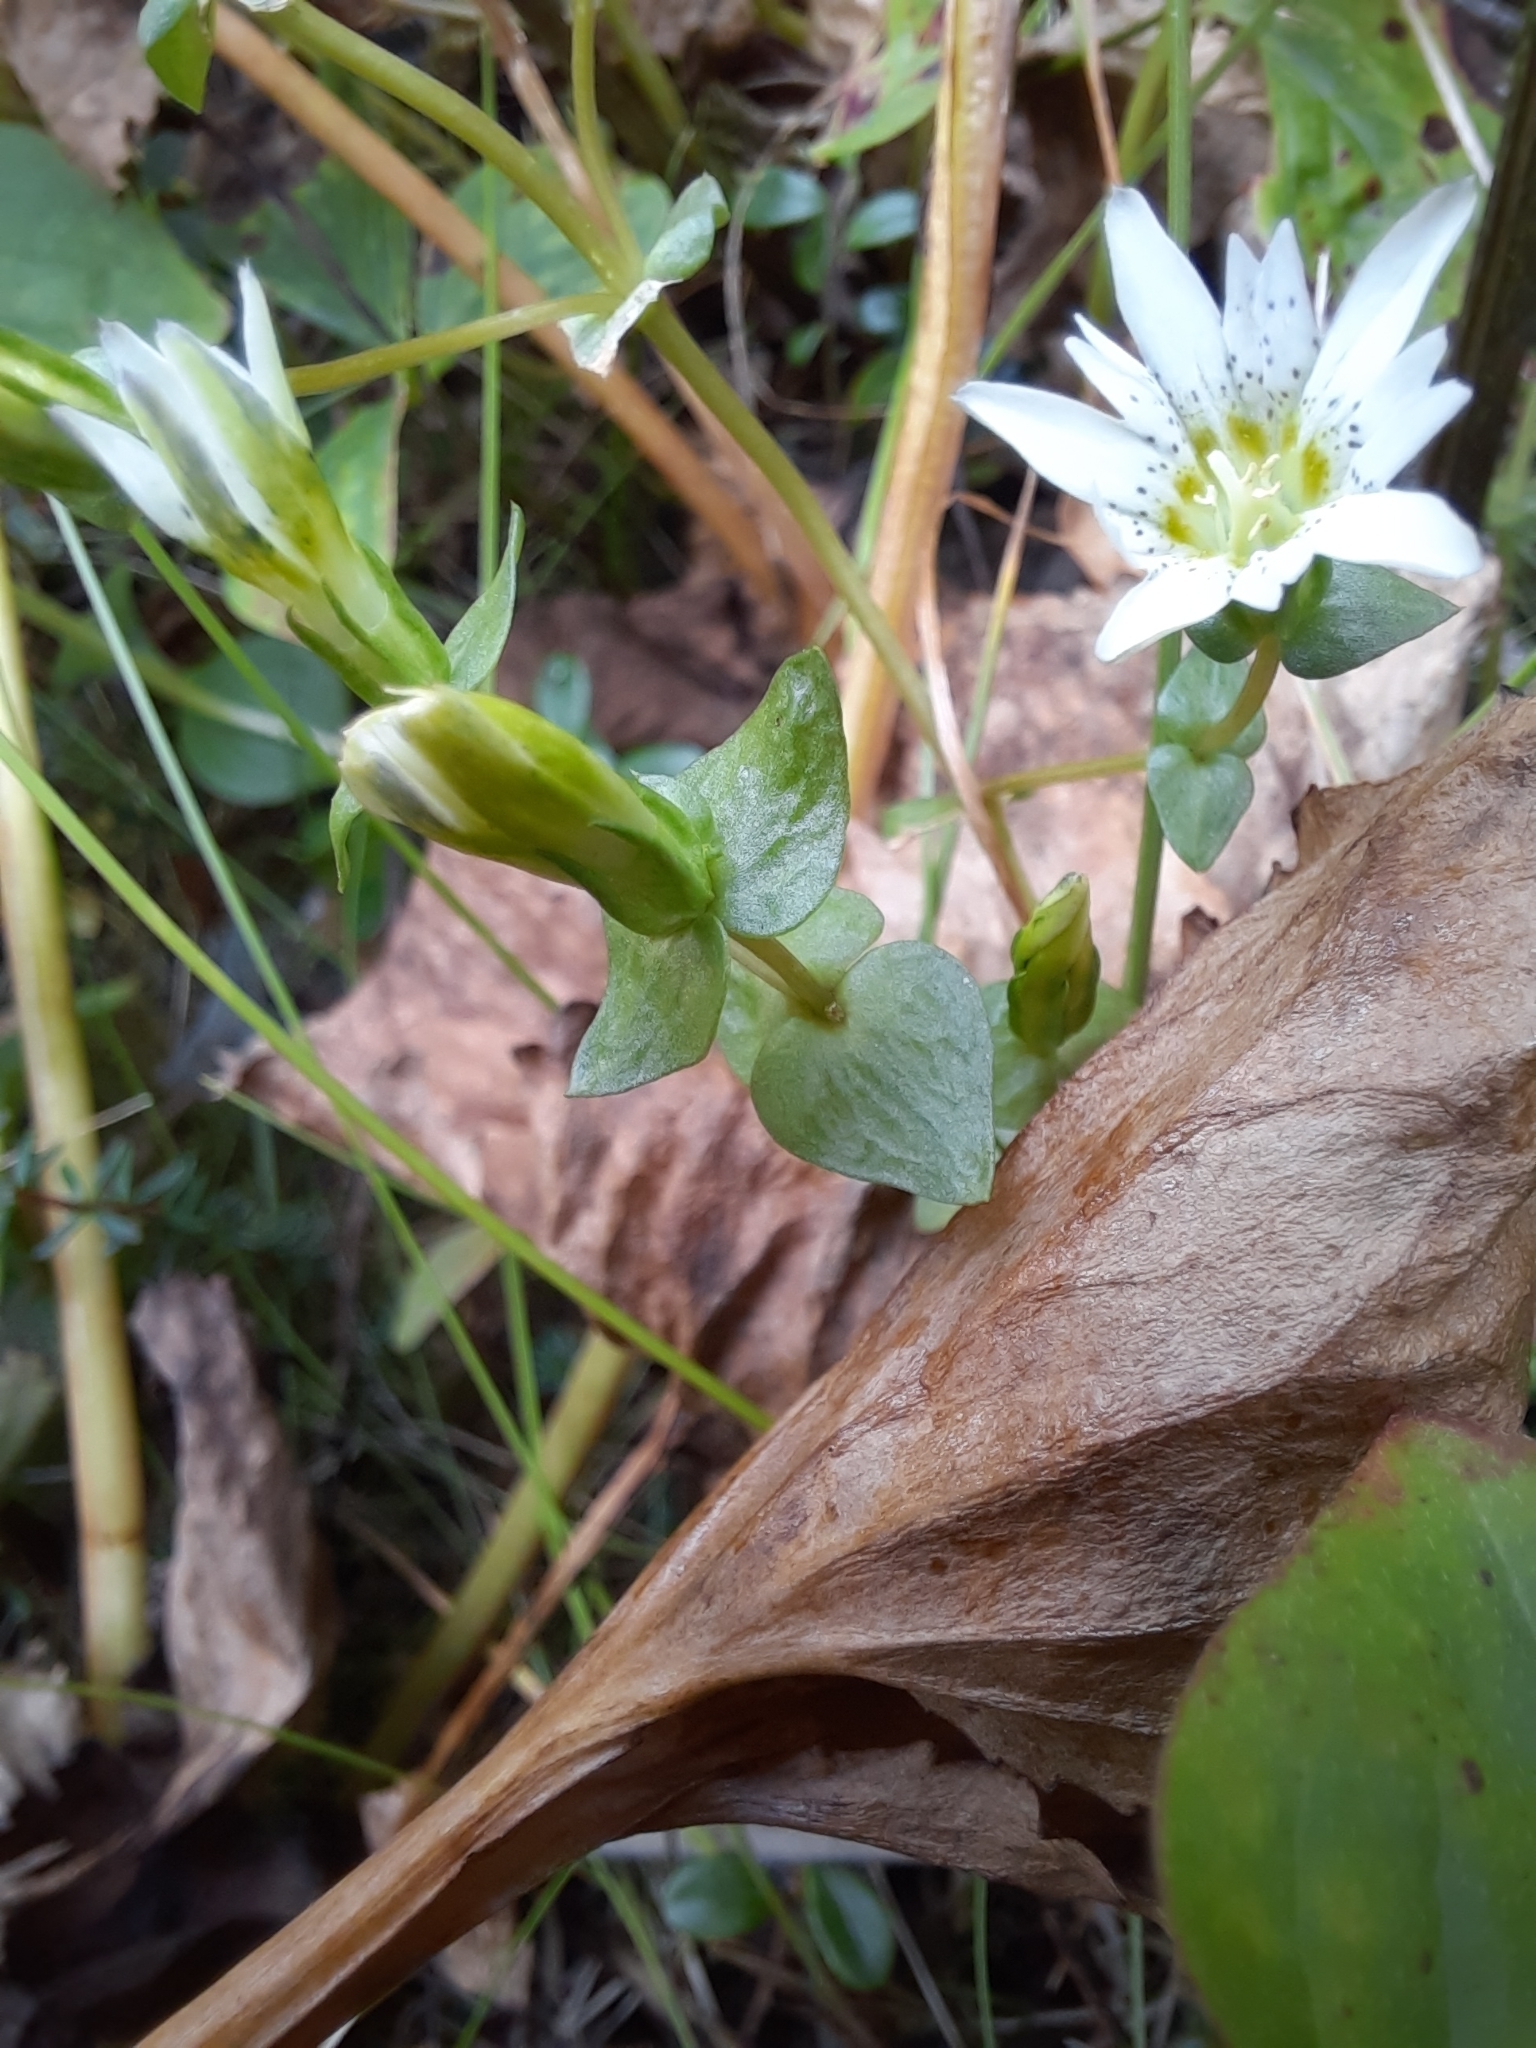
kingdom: Plantae
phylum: Tracheophyta
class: Magnoliopsida
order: Gentianales
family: Gentianaceae
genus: Gentiana
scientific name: Gentiana douglasiana
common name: Swamp gentian
